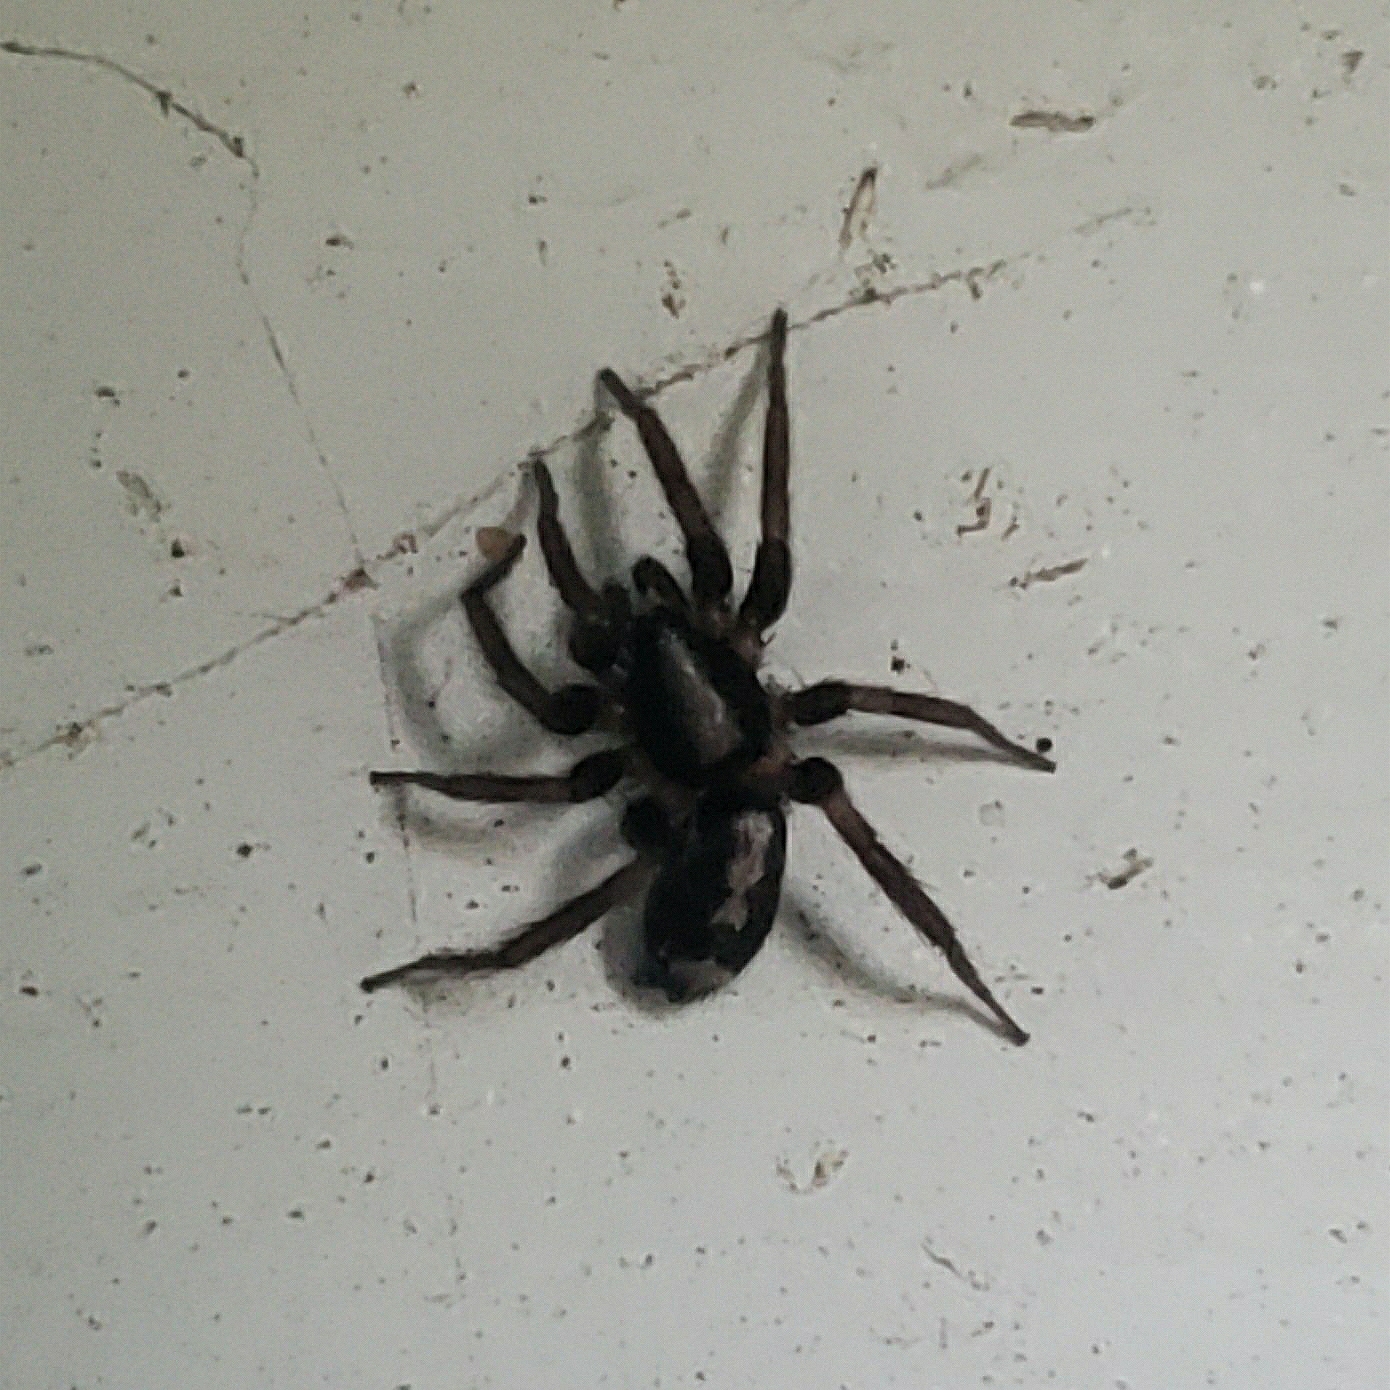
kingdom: Animalia
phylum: Arthropoda
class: Arachnida
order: Araneae
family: Gnaphosidae
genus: Herpyllus
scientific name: Herpyllus ecclesiasticus
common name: Eastern parson spider
